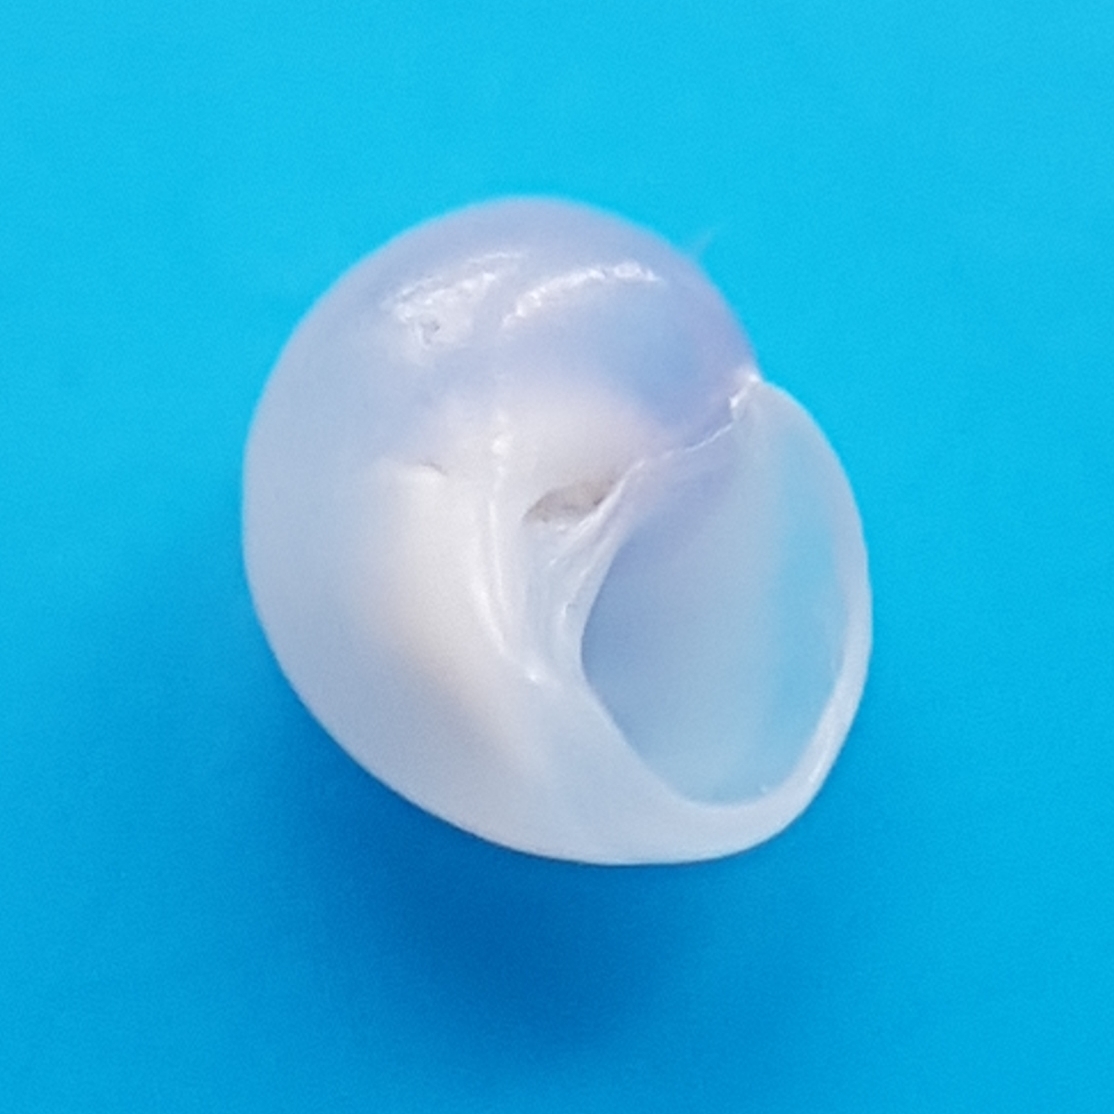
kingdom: Animalia
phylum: Mollusca
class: Gastropoda
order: Littorinimorpha
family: Littorinidae
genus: Lacuna
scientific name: Lacuna parva
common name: Least chink shell
